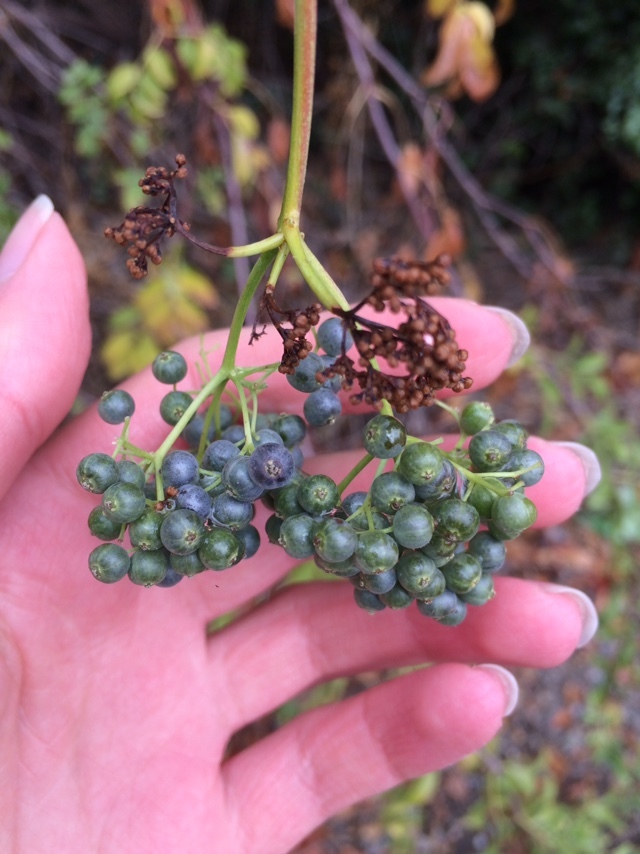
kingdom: Plantae
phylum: Tracheophyta
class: Magnoliopsida
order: Dipsacales
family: Viburnaceae
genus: Sambucus
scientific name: Sambucus cerulea
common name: Blue elder
